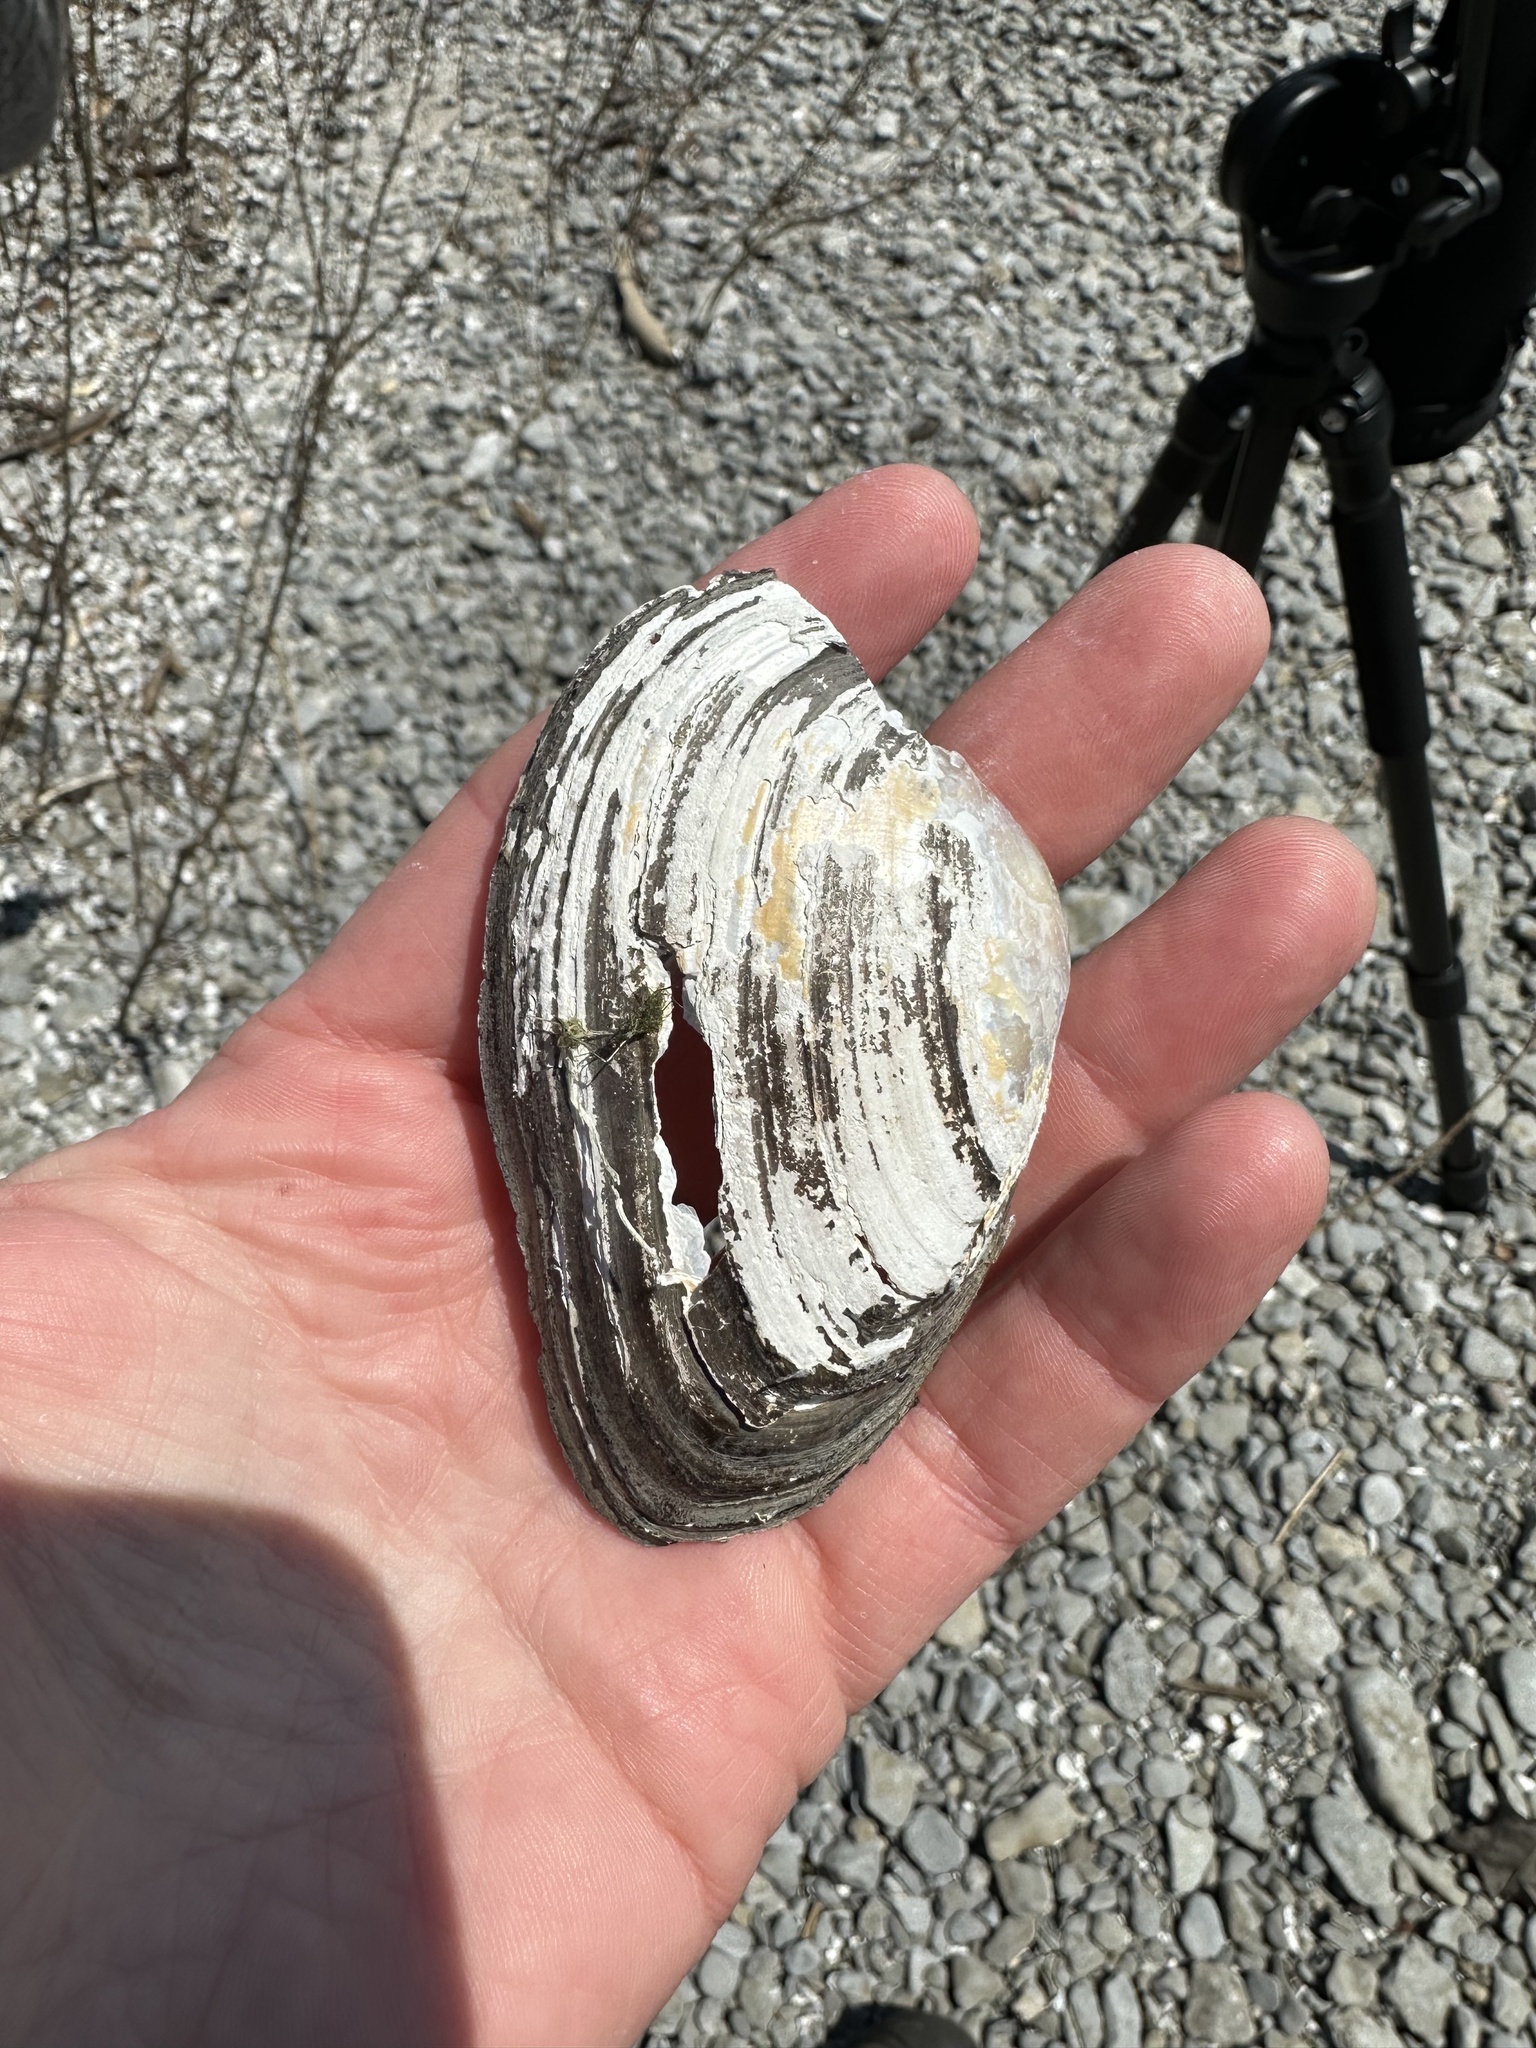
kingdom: Animalia
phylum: Mollusca
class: Bivalvia
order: Unionida
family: Unionidae
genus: Pyganodon
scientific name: Pyganodon grandis
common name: Giant floater
